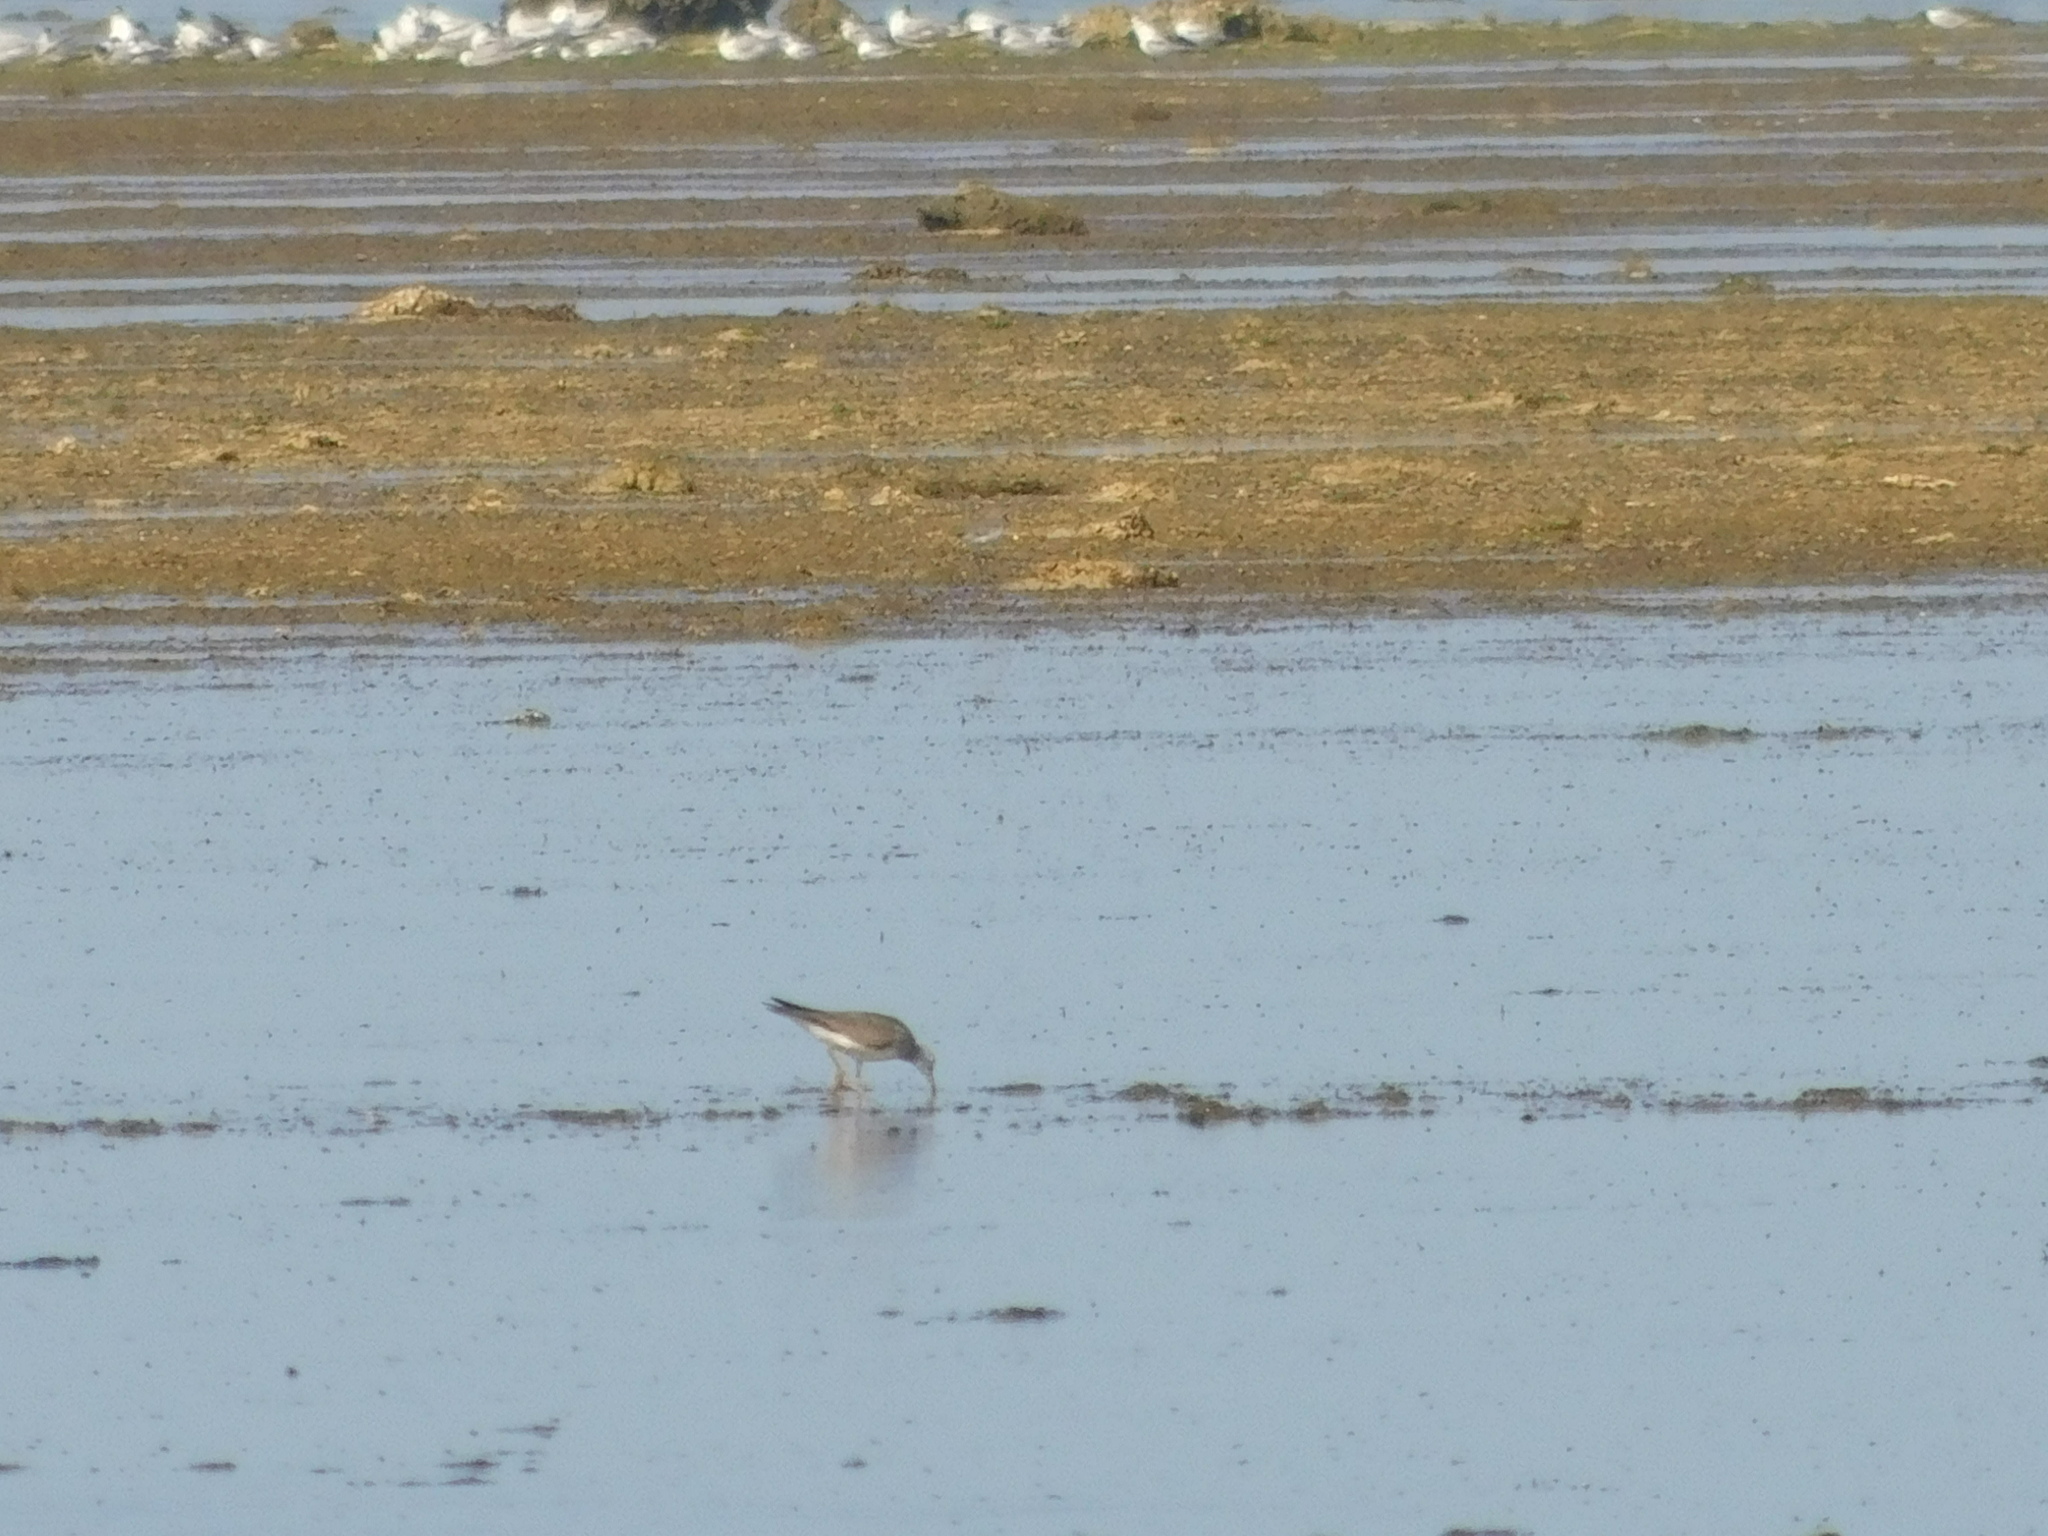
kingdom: Animalia
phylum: Chordata
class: Aves
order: Charadriiformes
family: Scolopacidae
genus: Tringa
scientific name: Tringa brevipes
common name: Grey-tailed tattler
